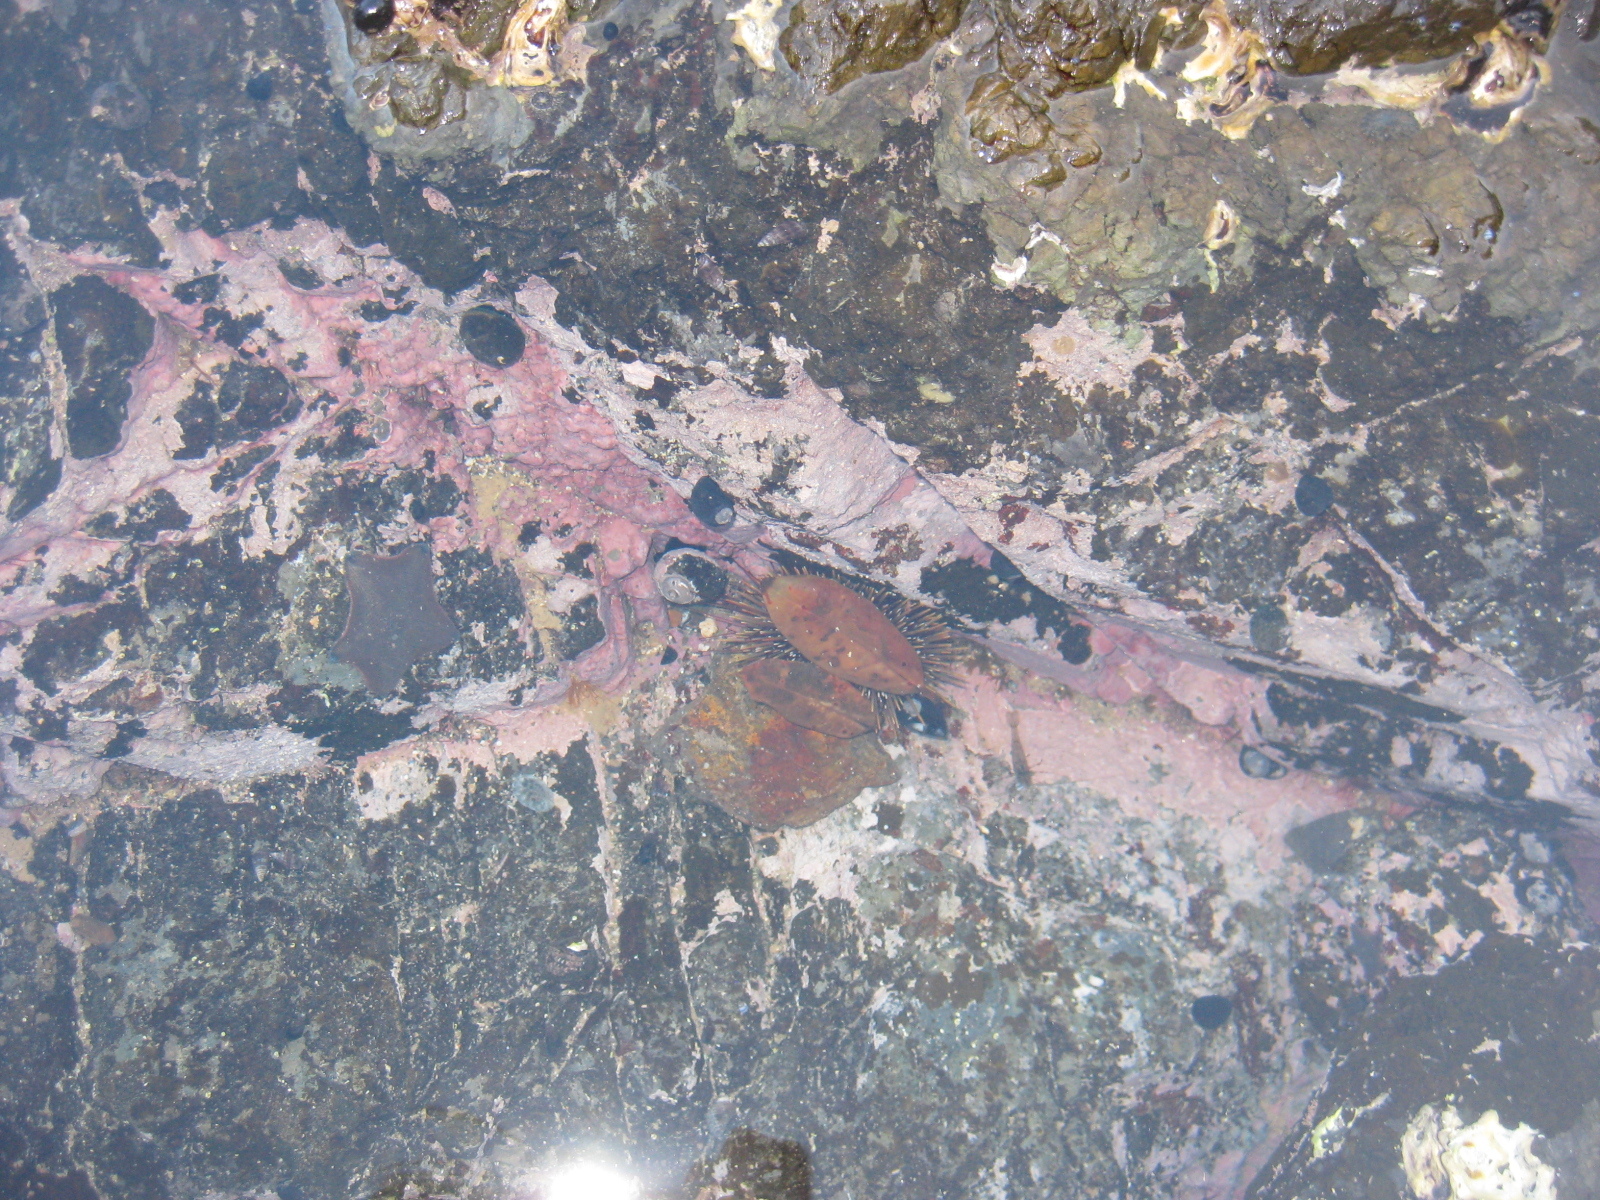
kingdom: Animalia
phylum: Echinodermata
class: Echinoidea
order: Camarodonta
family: Echinometridae
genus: Evechinus
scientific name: Evechinus chloroticus
